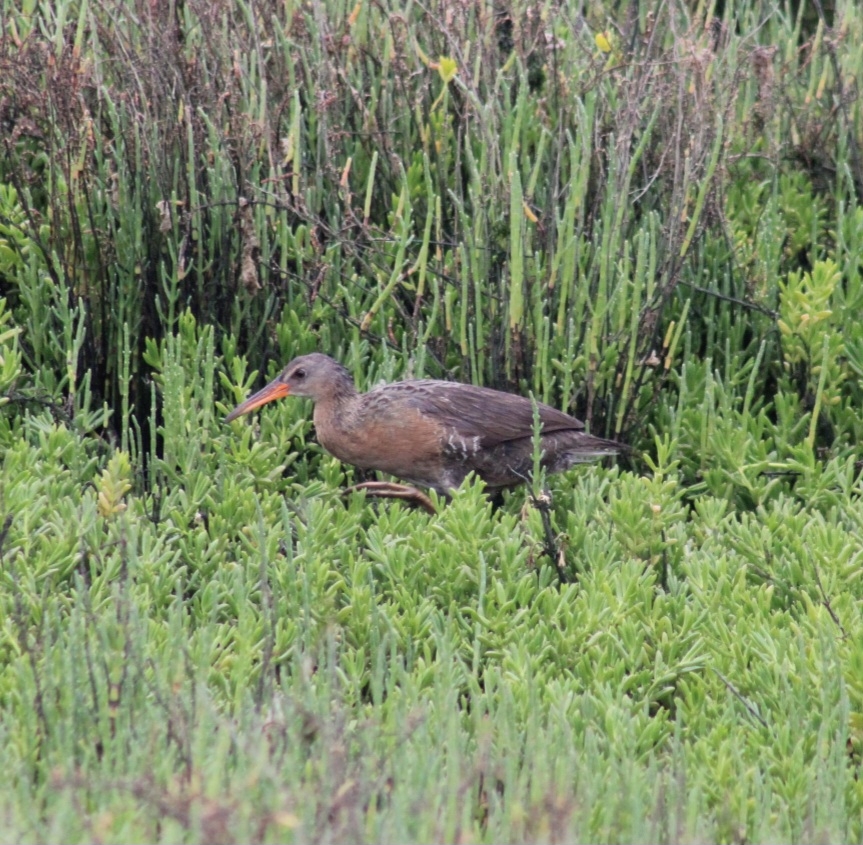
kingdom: Animalia
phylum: Chordata
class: Aves
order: Gruiformes
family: Rallidae
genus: Rallus
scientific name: Rallus obsoletus
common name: Ridgway's rail
